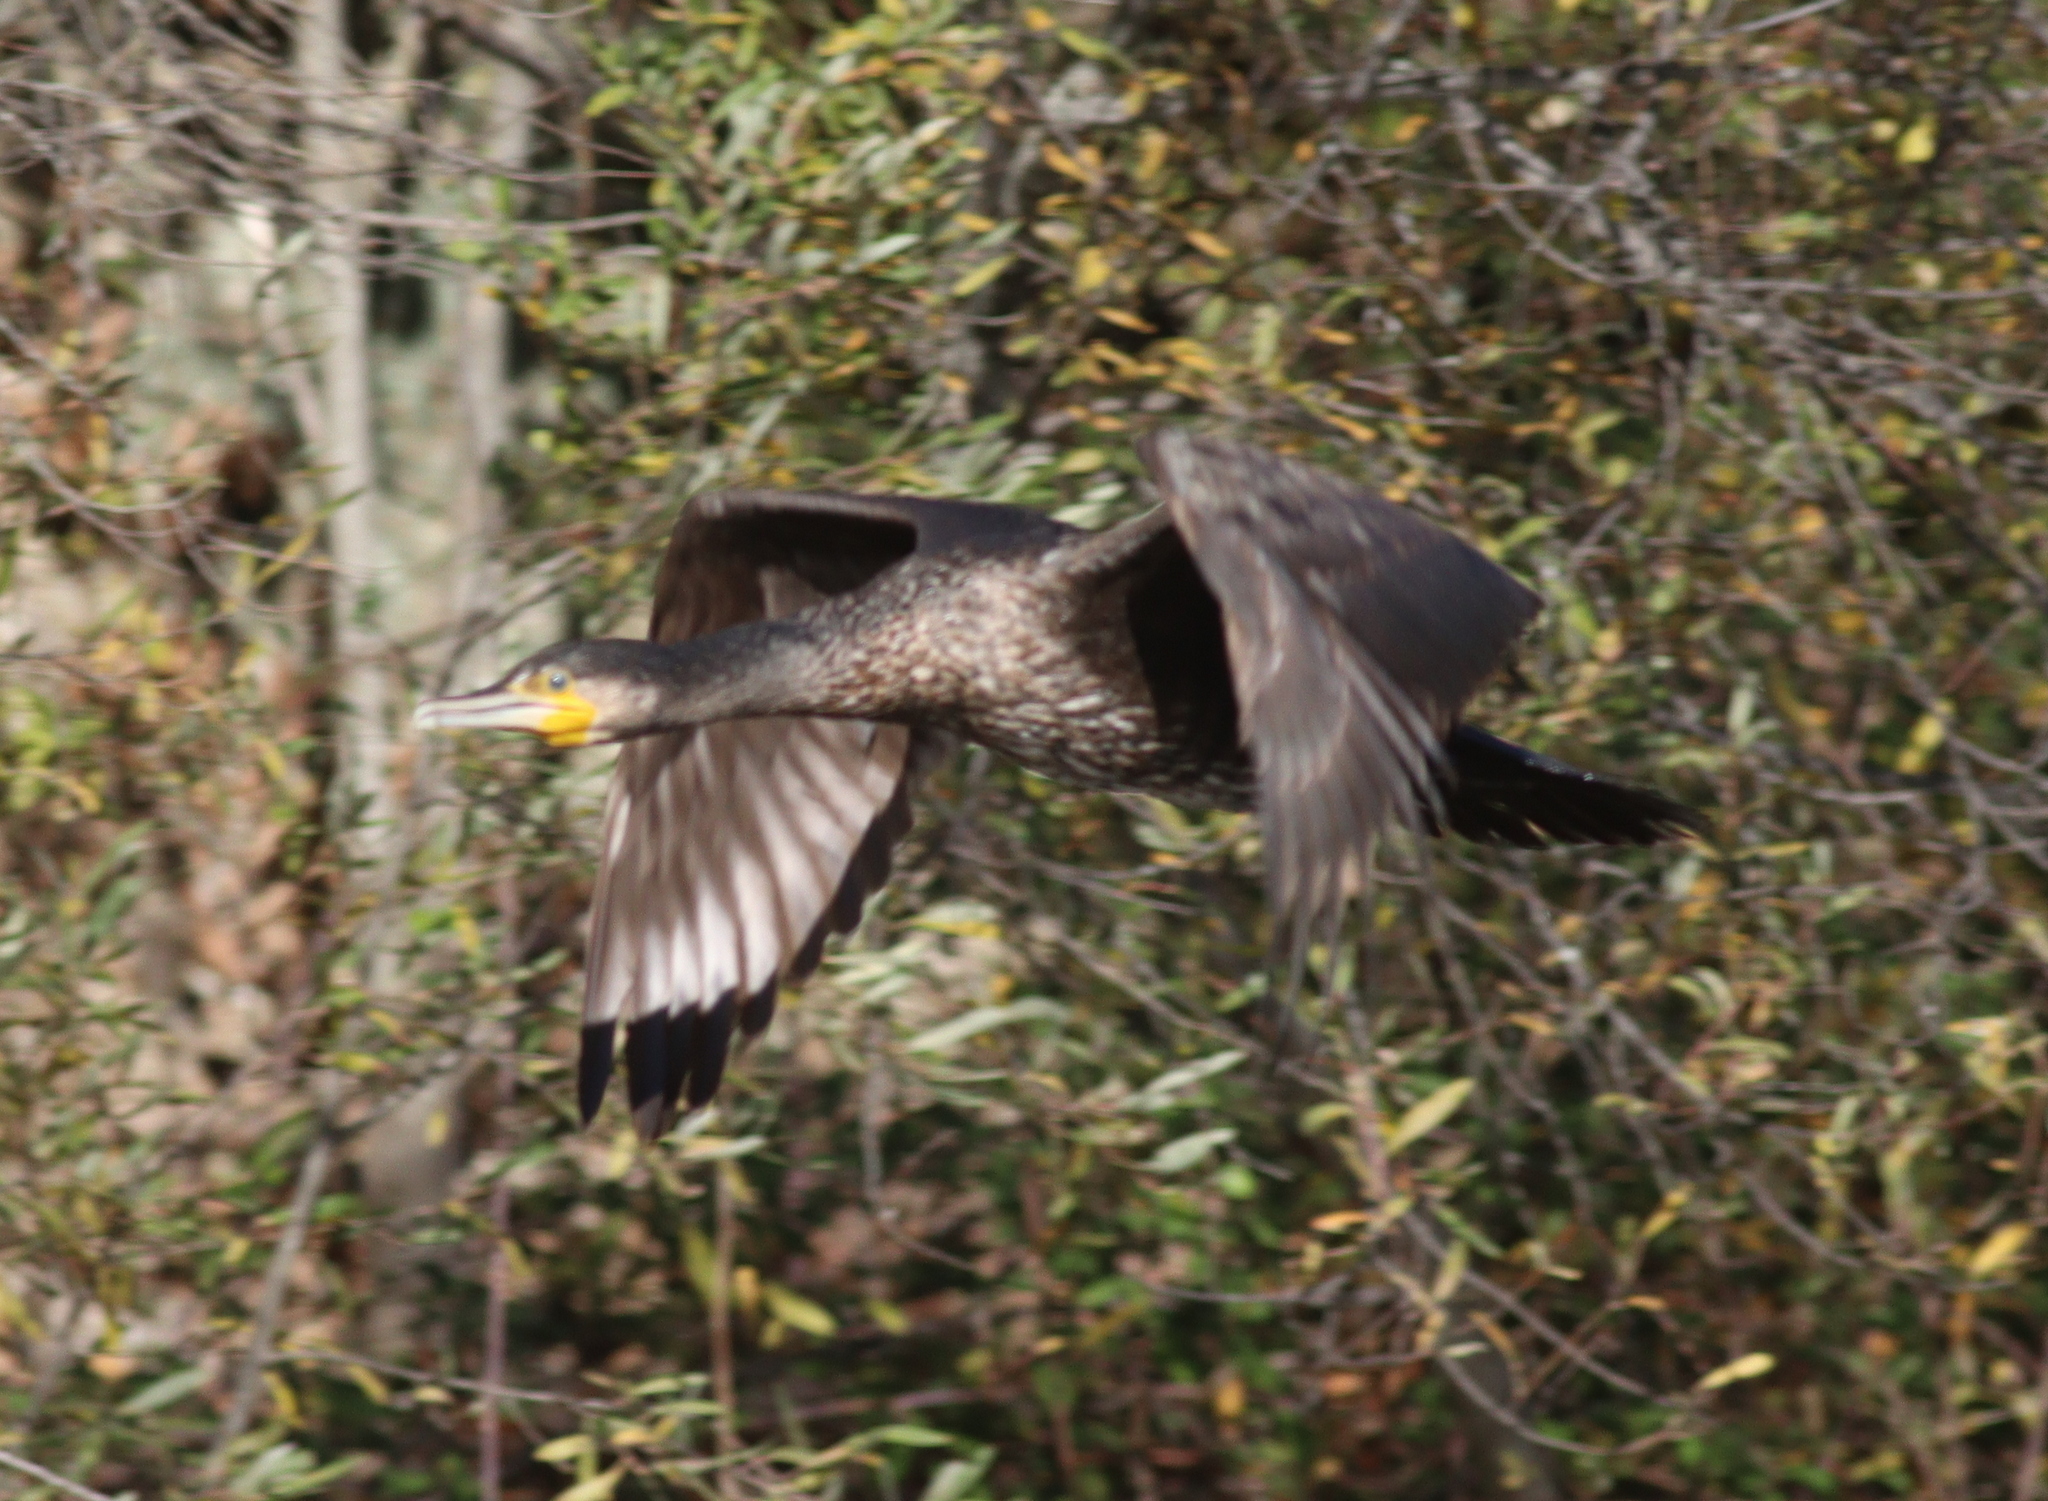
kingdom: Animalia
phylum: Chordata
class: Aves
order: Suliformes
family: Phalacrocoracidae
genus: Phalacrocorax
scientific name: Phalacrocorax carbo
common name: Great cormorant
